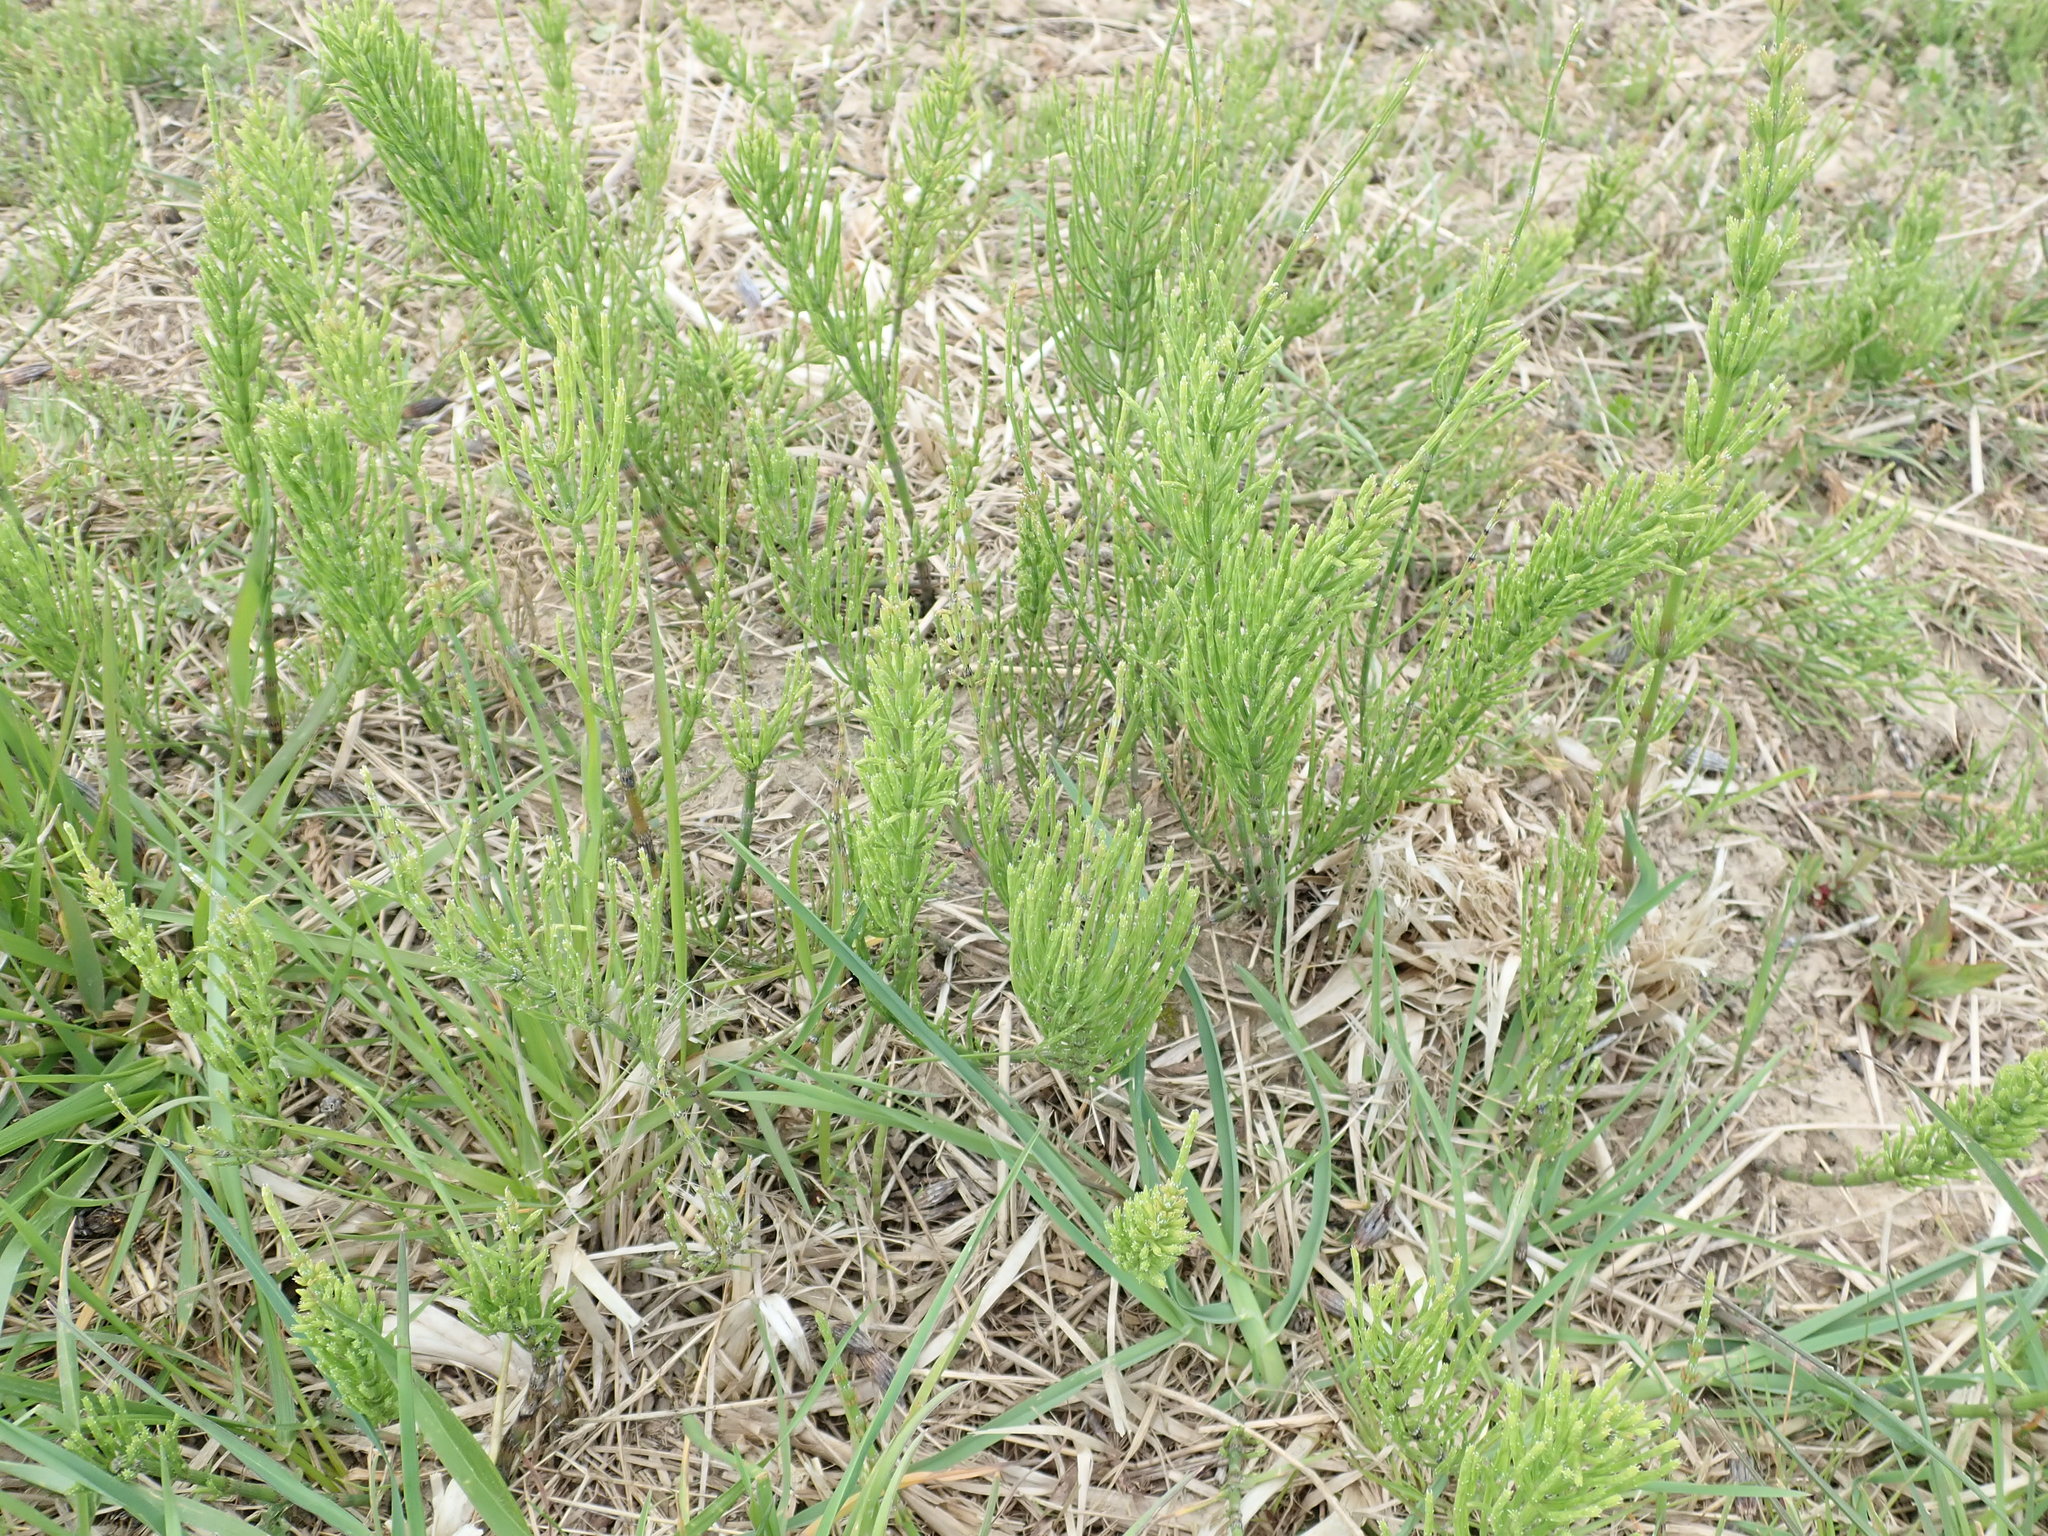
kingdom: Plantae
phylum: Tracheophyta
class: Polypodiopsida
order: Equisetales
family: Equisetaceae
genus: Equisetum
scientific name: Equisetum arvense
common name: Field horsetail
